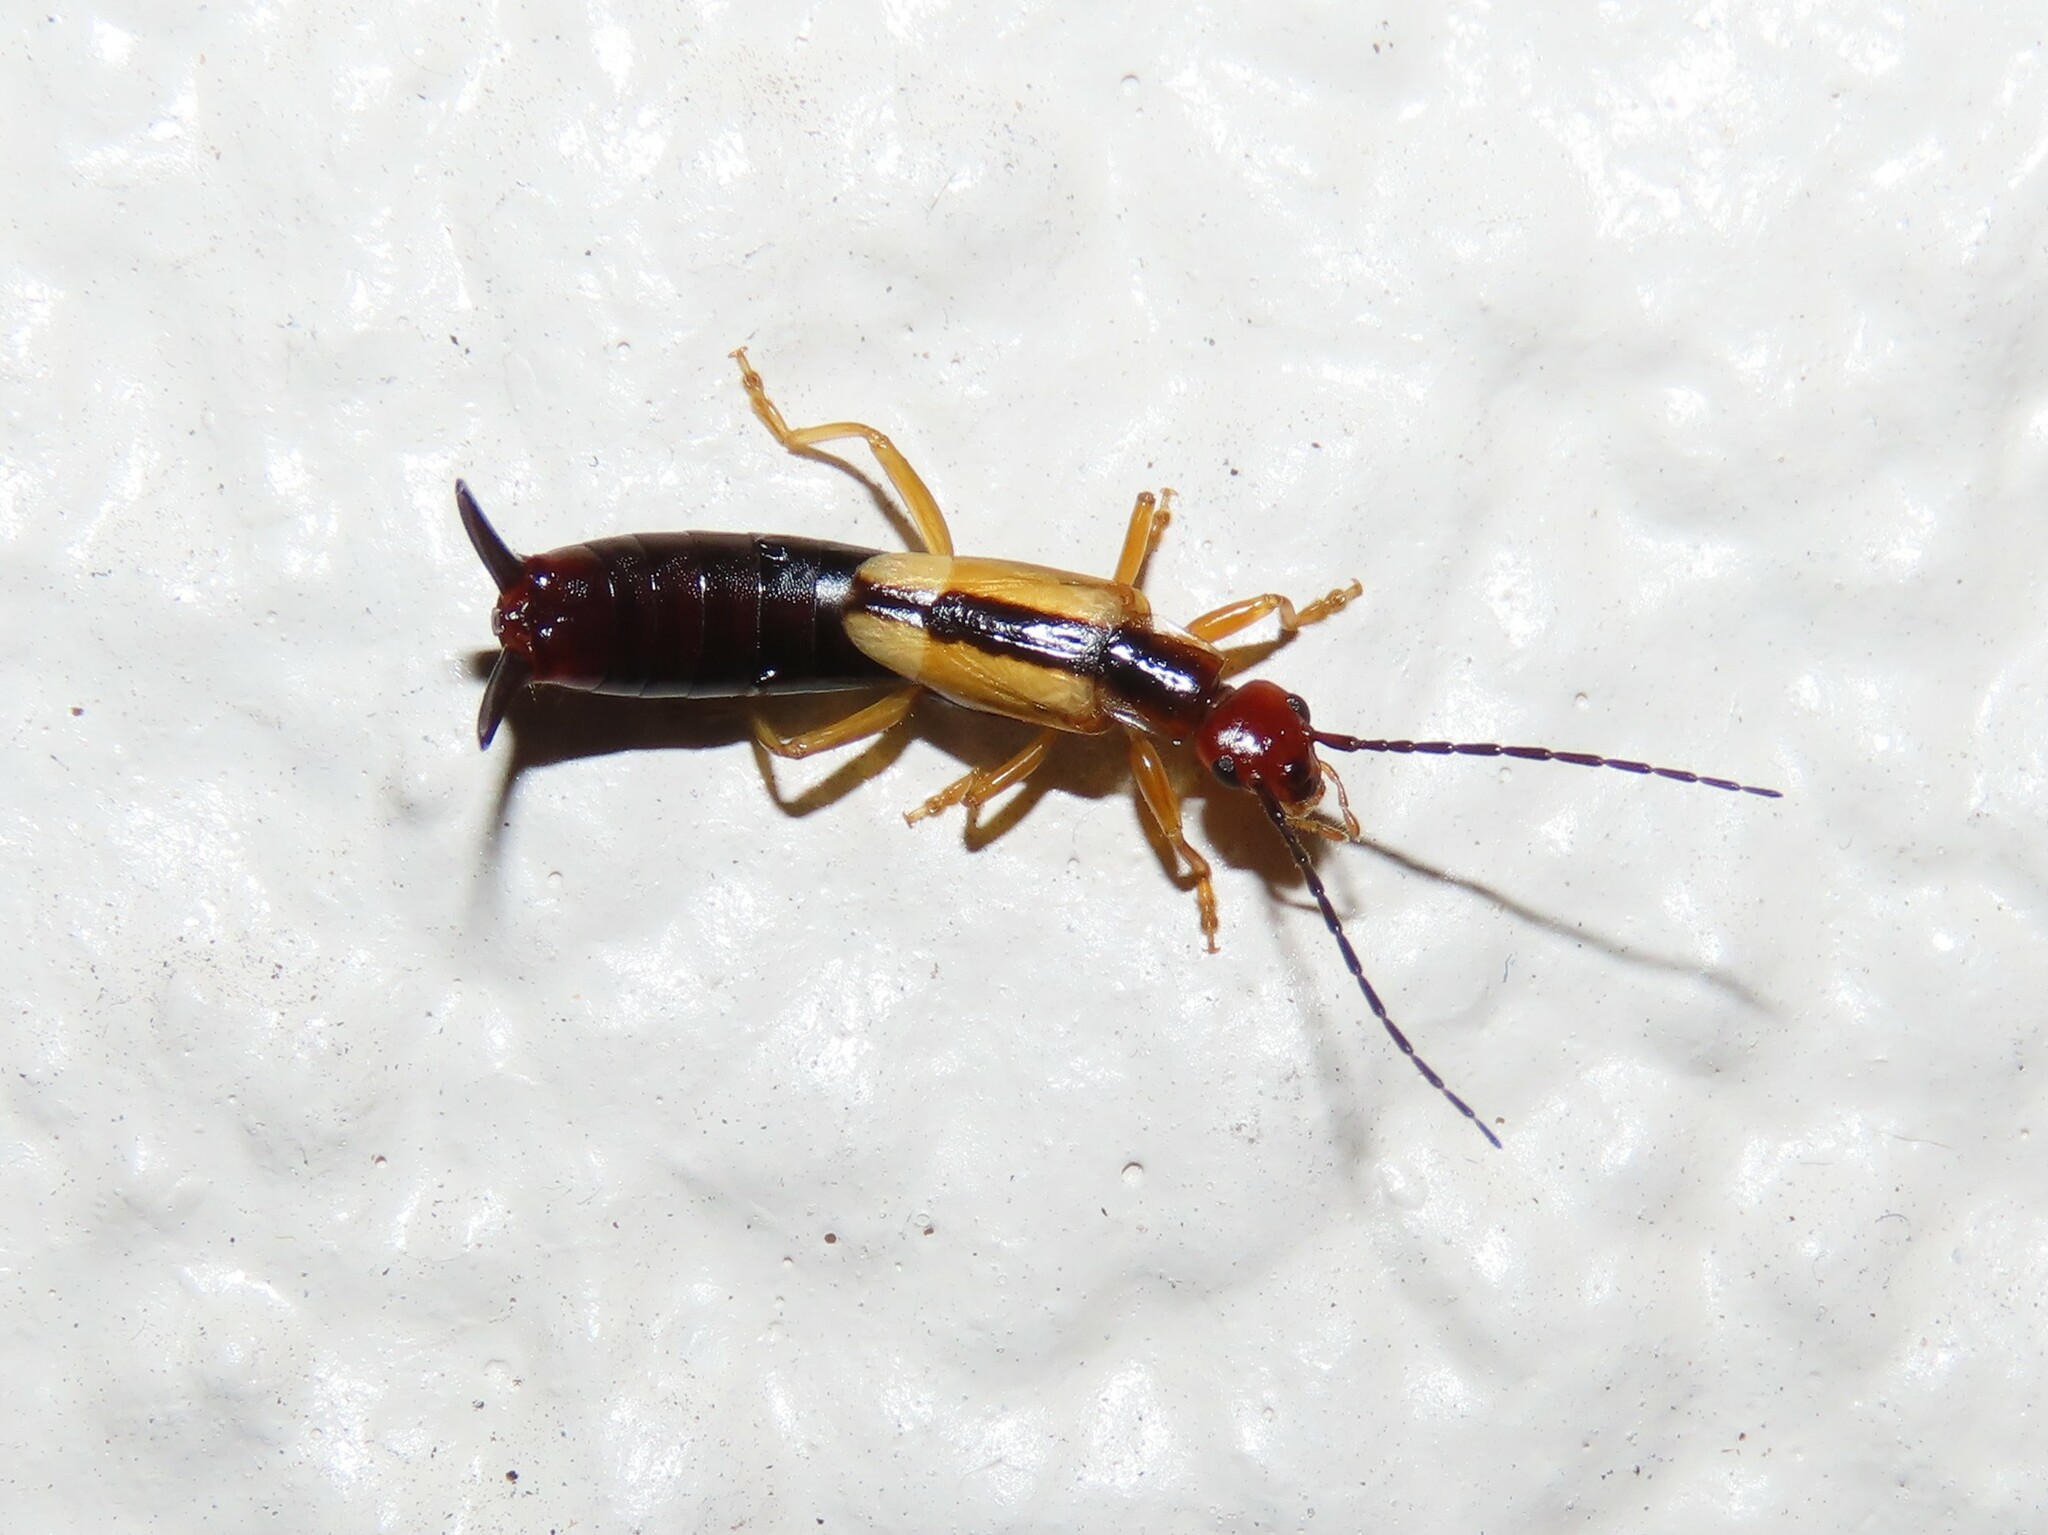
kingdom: Animalia
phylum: Arthropoda
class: Insecta
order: Dermaptera
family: Forficulidae
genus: Doru
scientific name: Doru taeniatum
